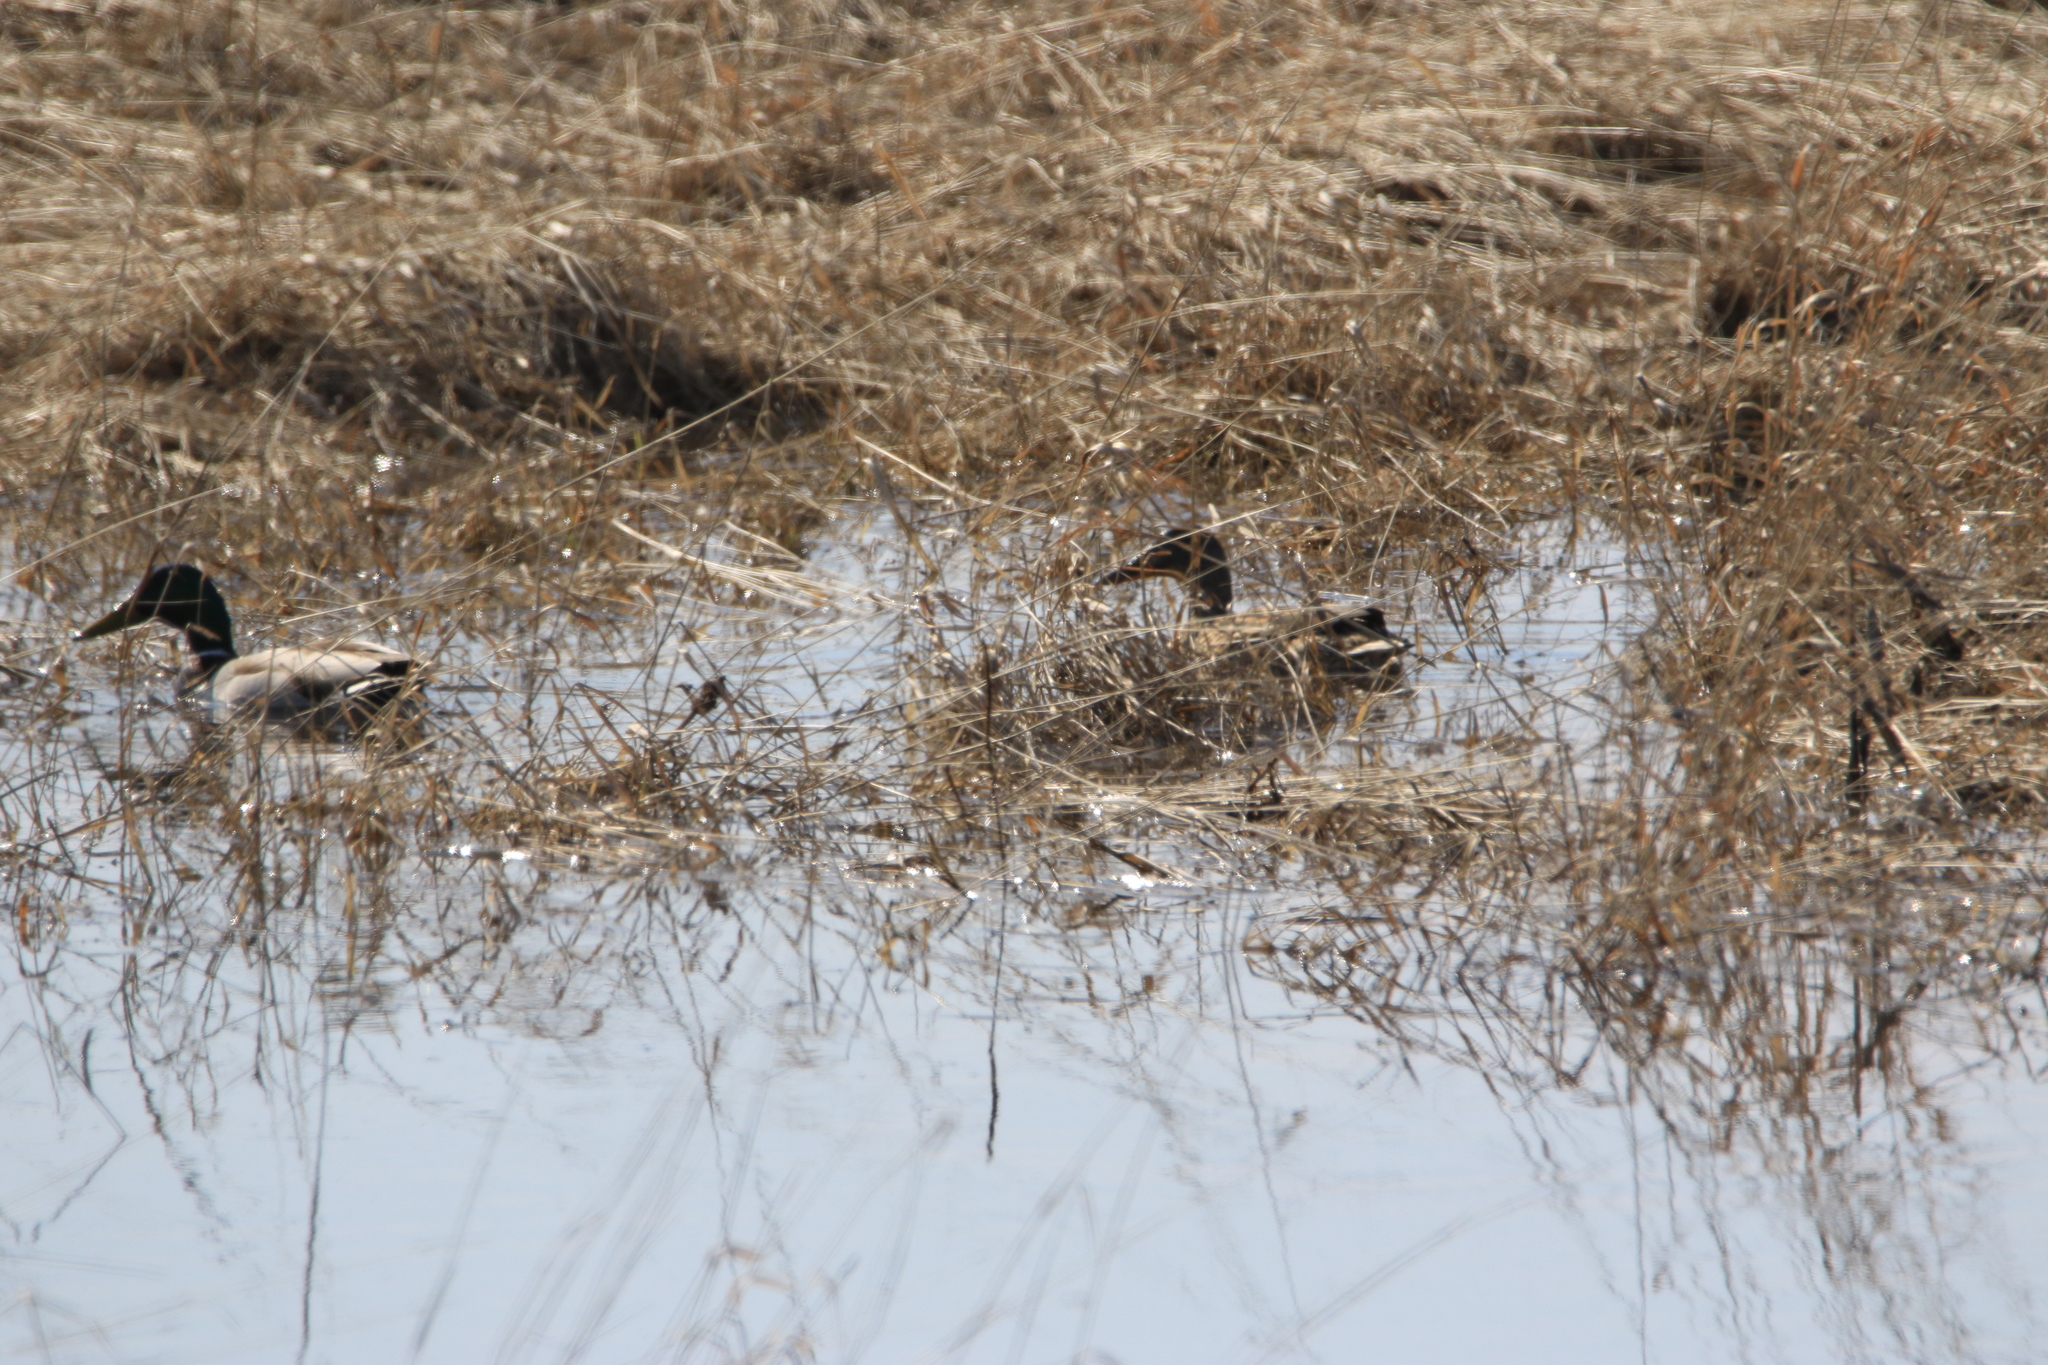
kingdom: Animalia
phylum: Chordata
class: Aves
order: Anseriformes
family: Anatidae
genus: Anas
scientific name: Anas platyrhynchos
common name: Mallard
